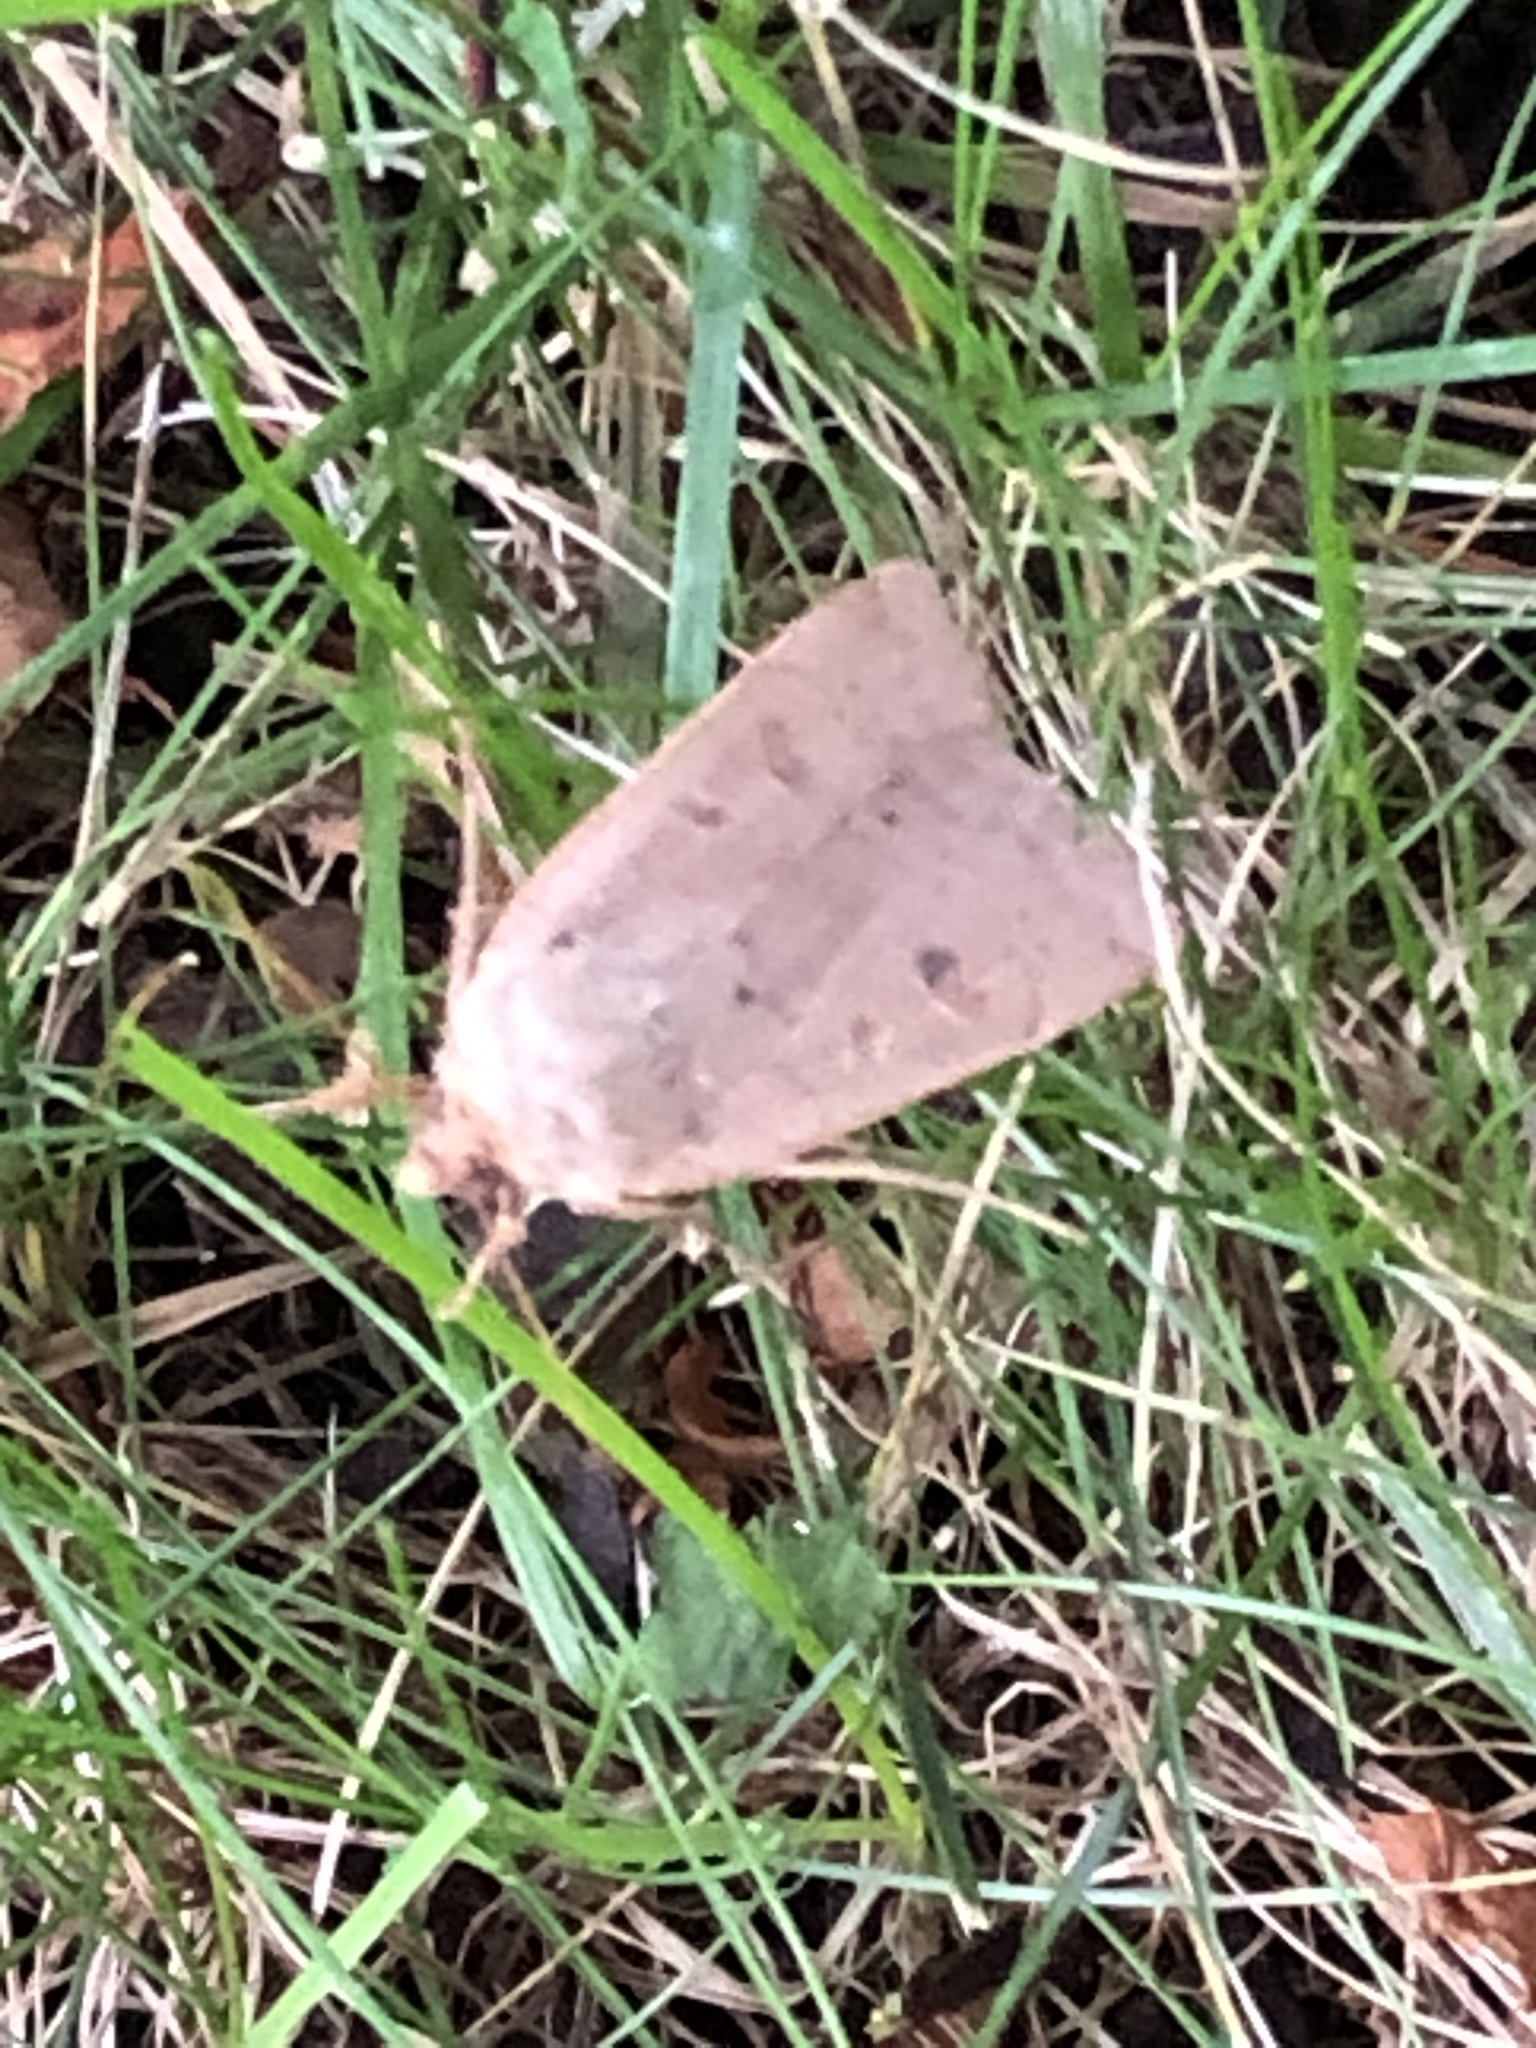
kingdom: Animalia
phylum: Arthropoda
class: Insecta
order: Lepidoptera
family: Noctuidae
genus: Noctua
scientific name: Noctua comes
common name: Lesser yellow underwing
